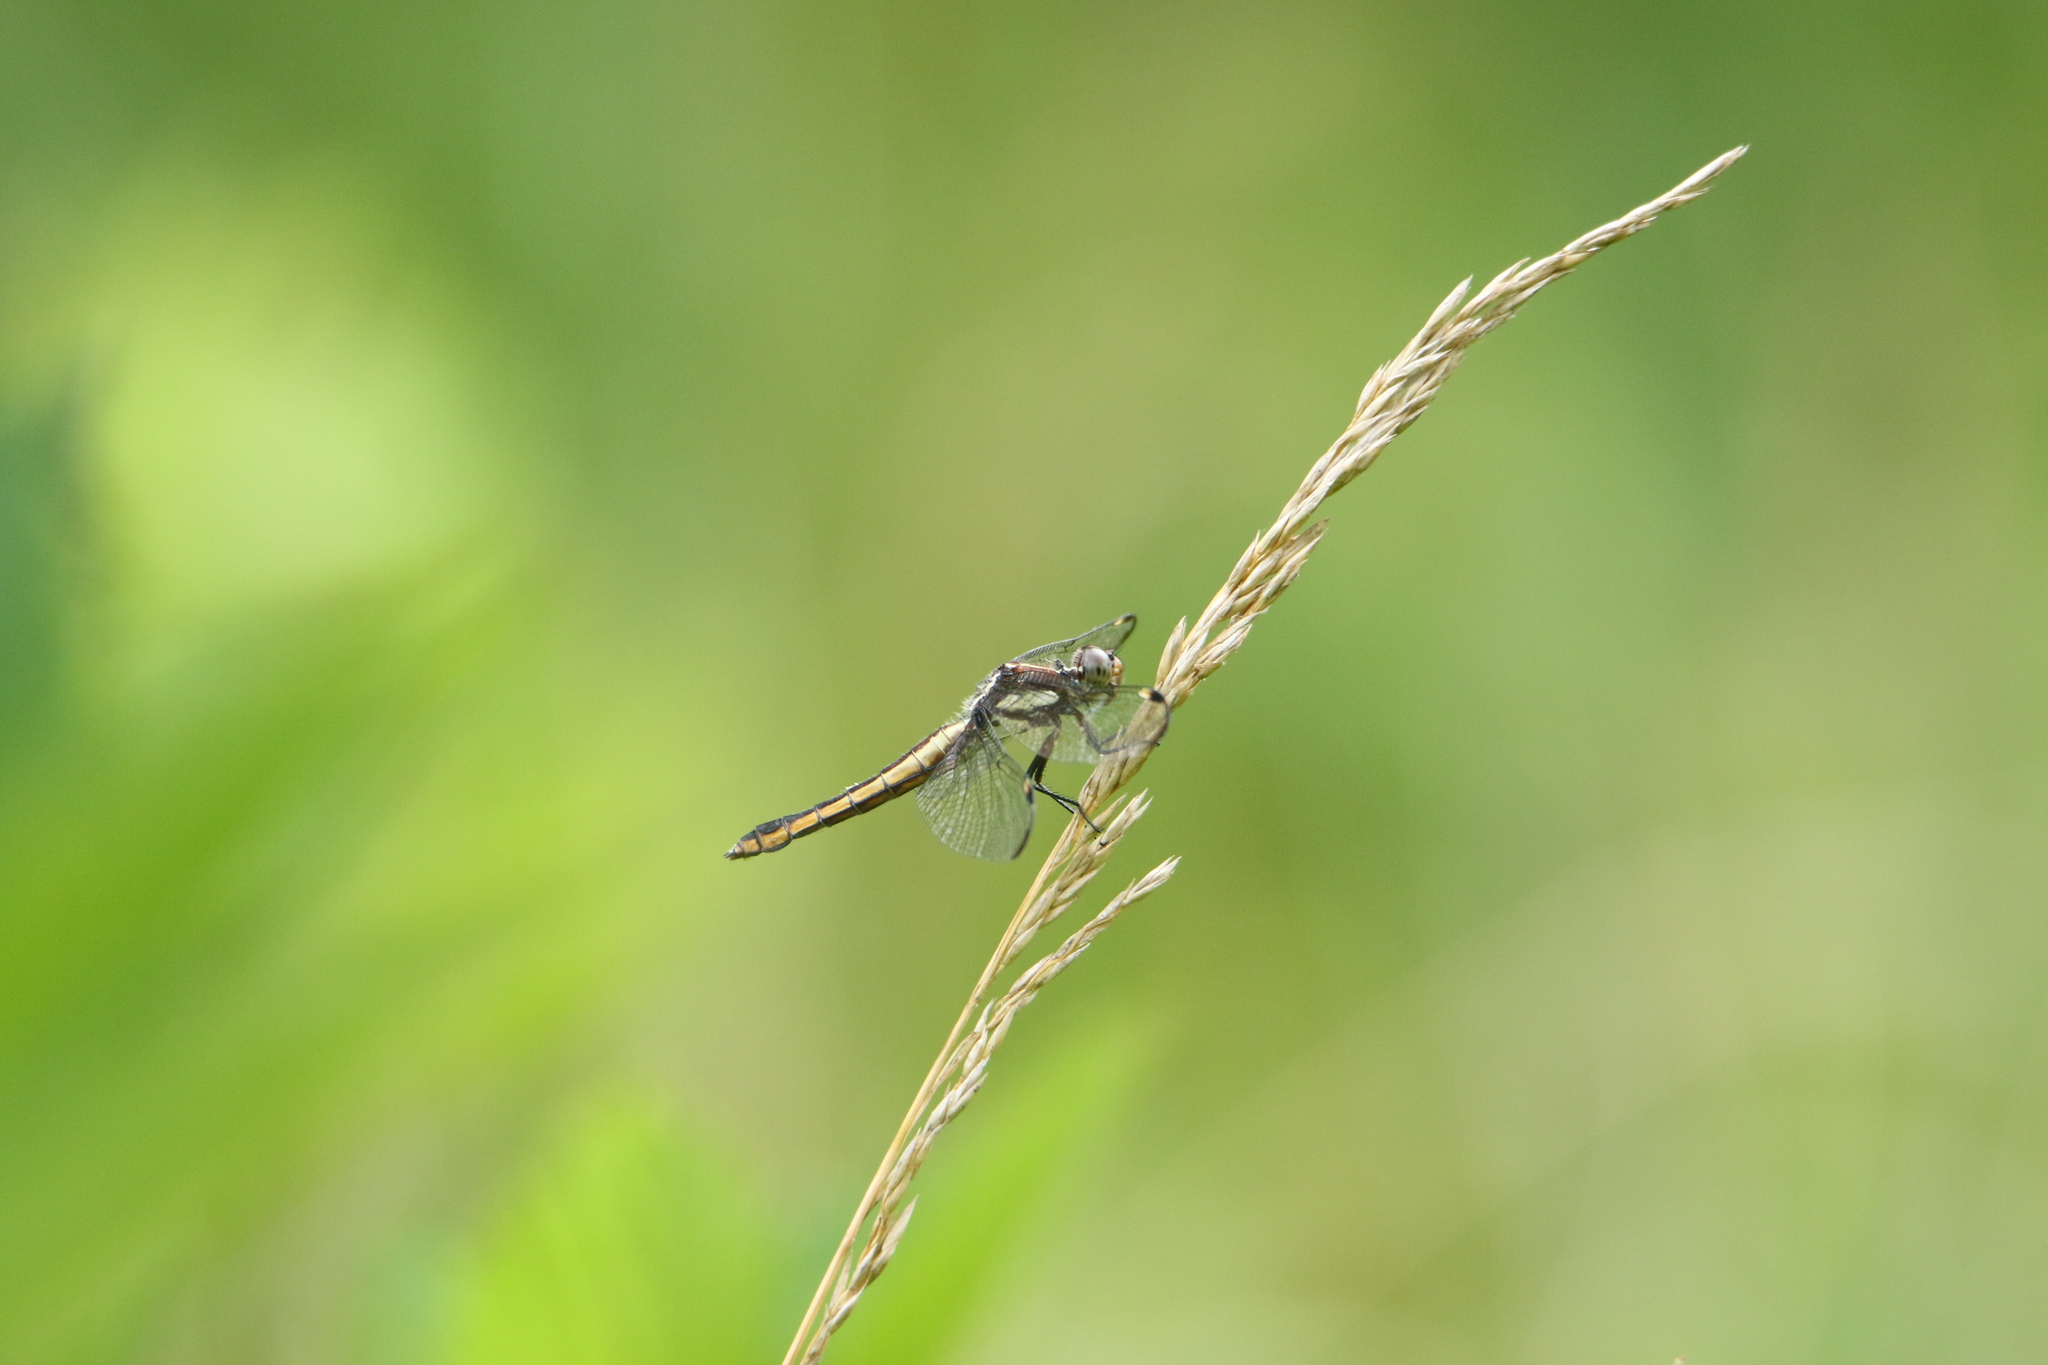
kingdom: Animalia
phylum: Arthropoda
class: Insecta
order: Odonata
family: Libellulidae
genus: Libellula
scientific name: Libellula cyanea
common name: Spangled skimmer
